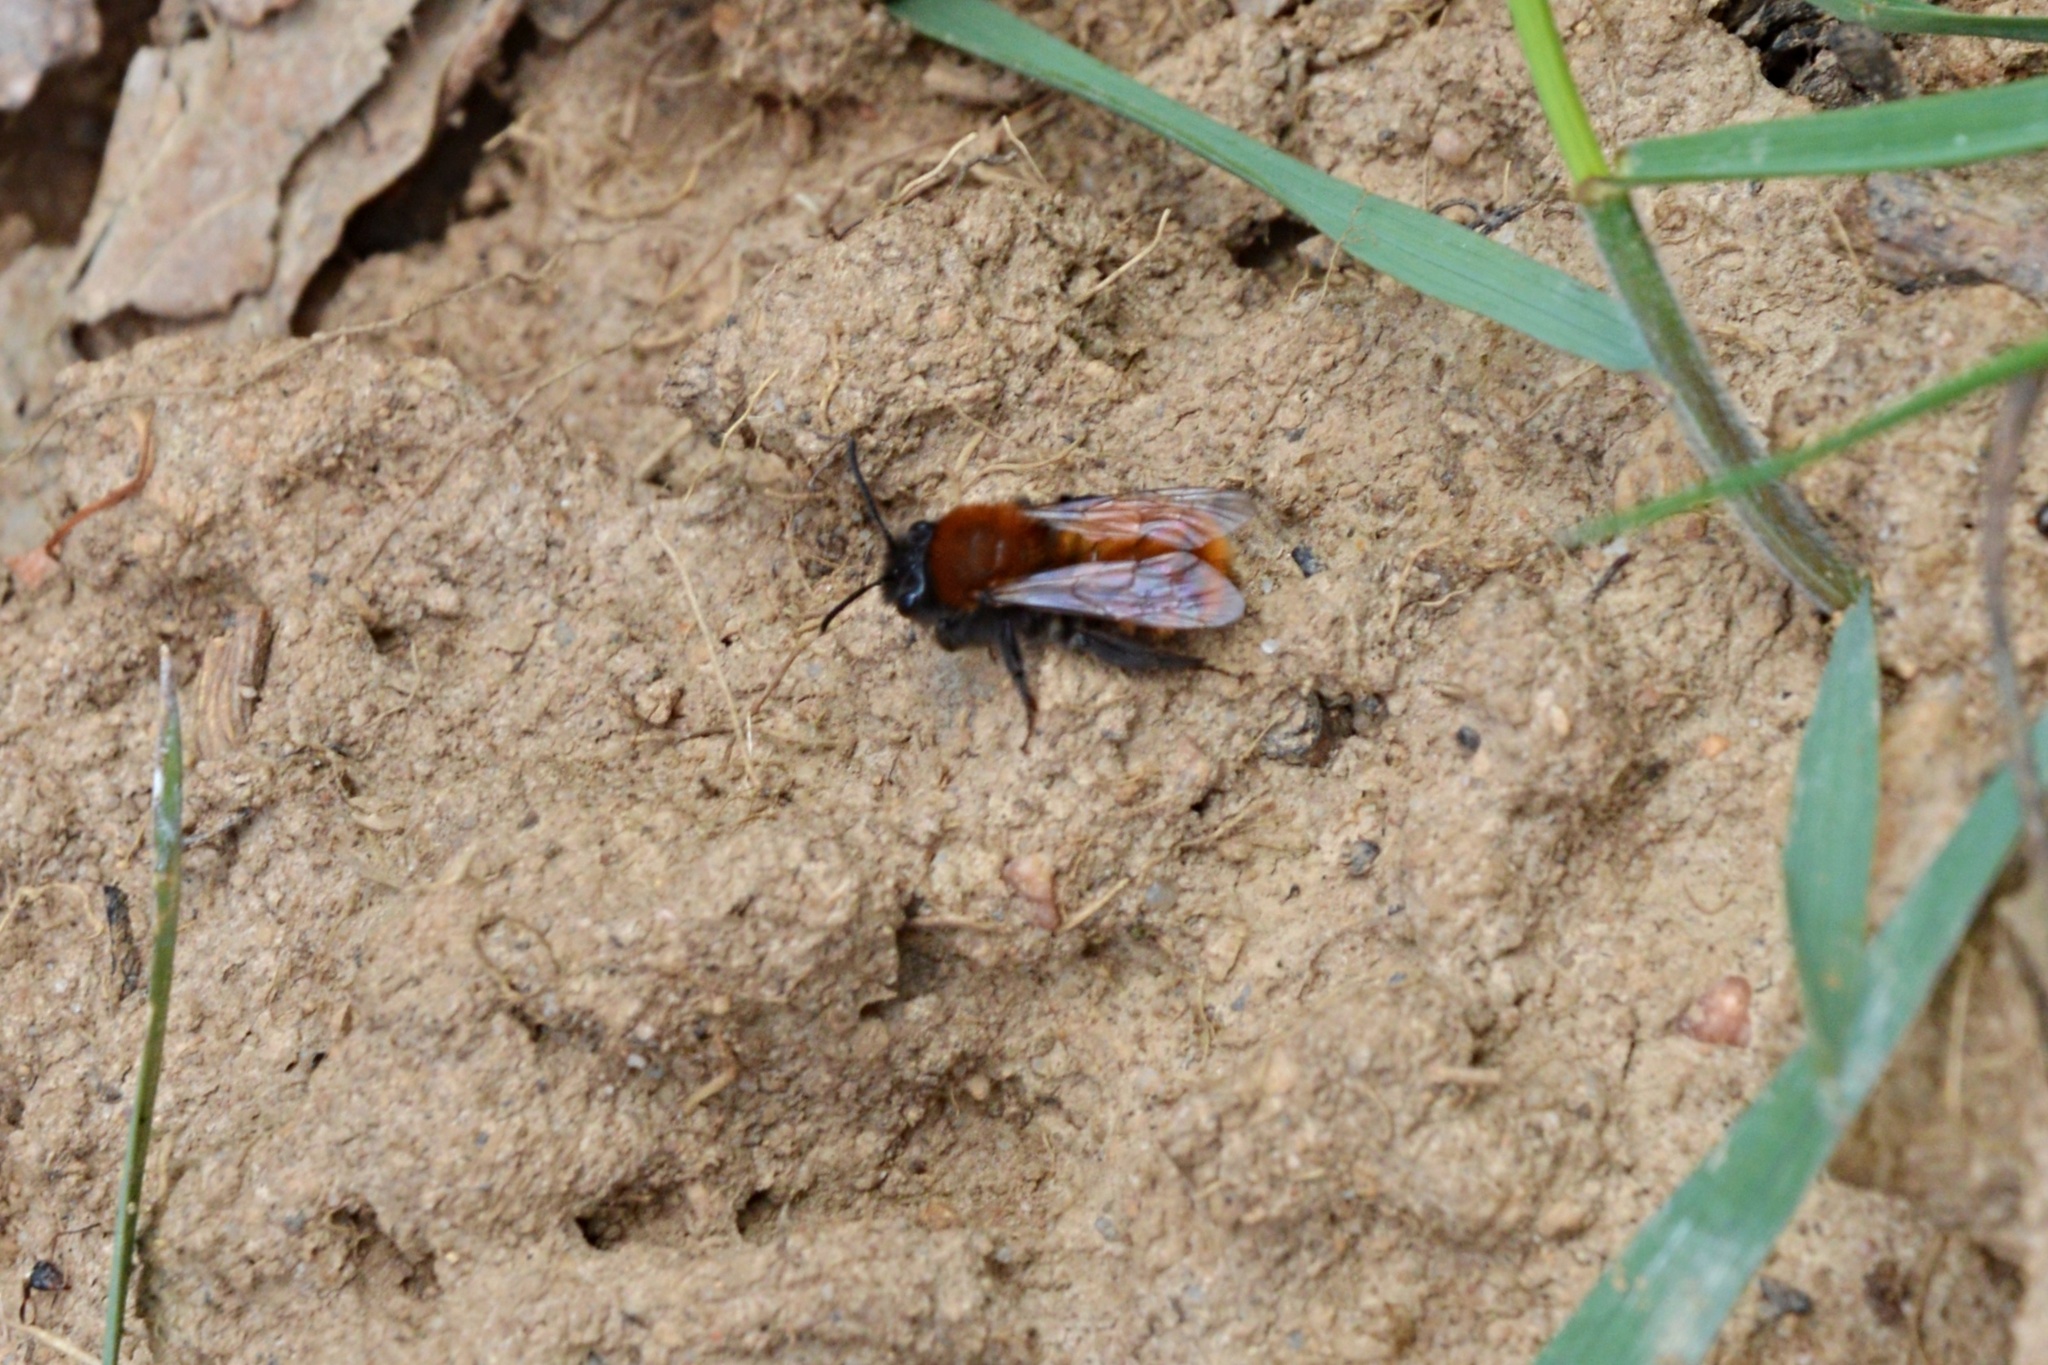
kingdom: Animalia
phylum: Arthropoda
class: Insecta
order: Hymenoptera
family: Andrenidae
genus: Andrena
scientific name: Andrena fulva
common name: Tawny mining bee
